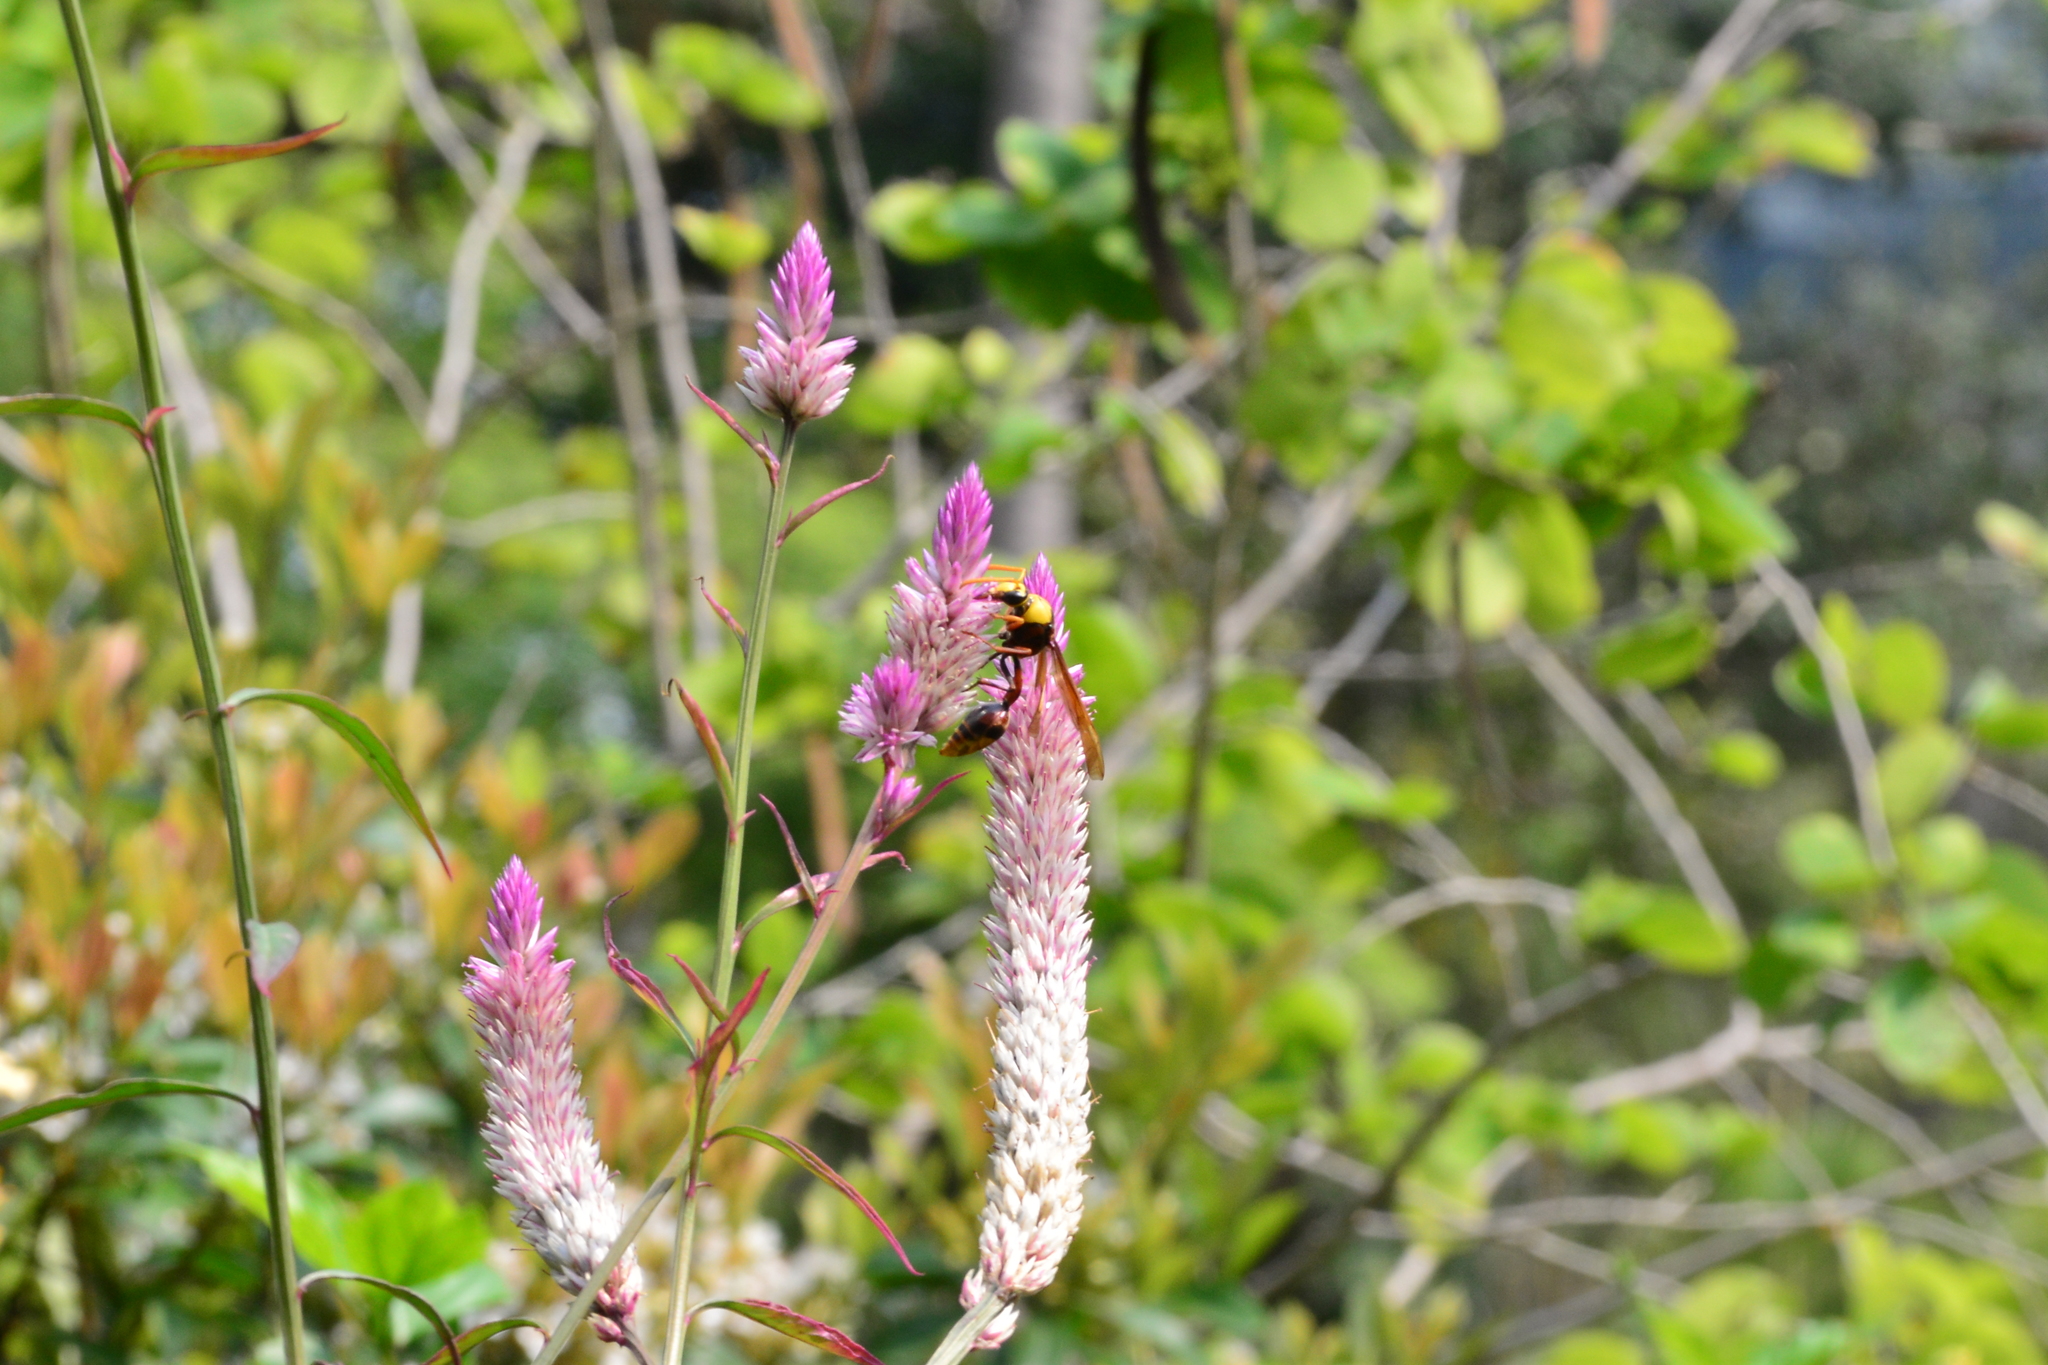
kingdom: Animalia
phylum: Arthropoda
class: Insecta
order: Hymenoptera
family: Eumenidae
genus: Delta
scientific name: Delta pyriforme
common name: Wasp
